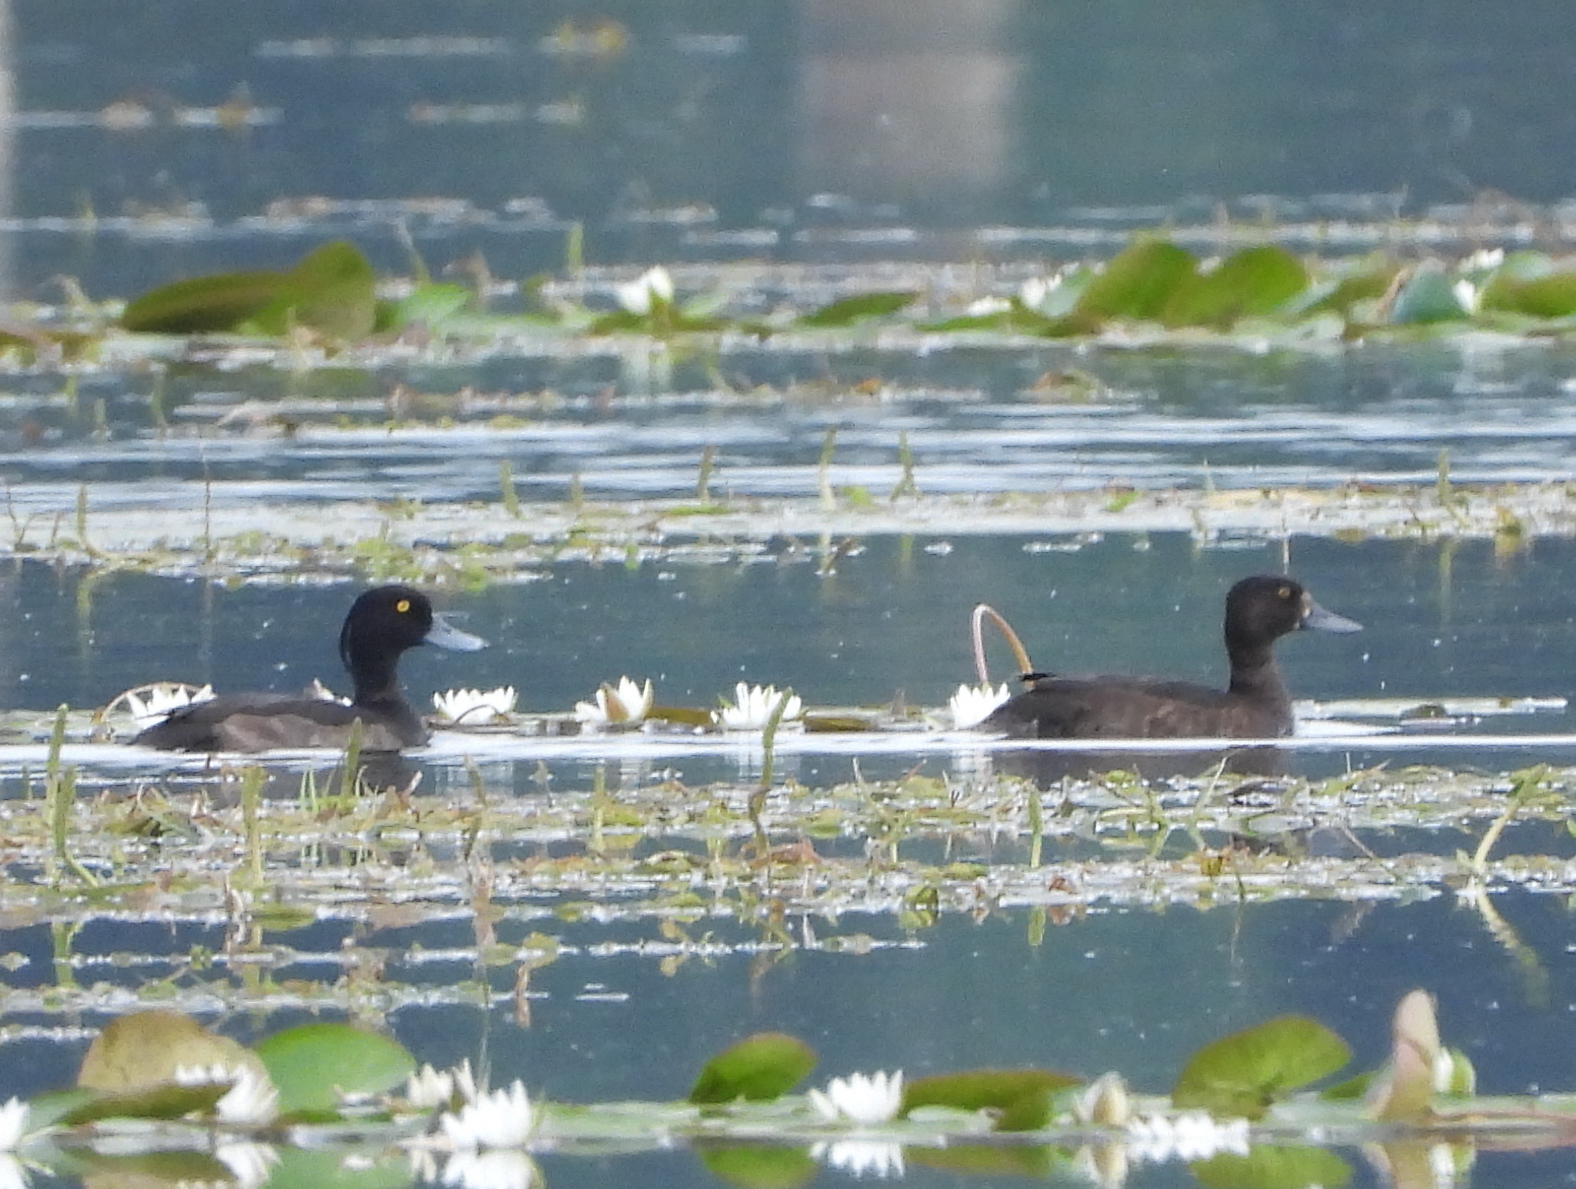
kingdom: Animalia
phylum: Chordata
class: Aves
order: Anseriformes
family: Anatidae
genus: Aythya
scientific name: Aythya fuligula
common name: Tufted duck
